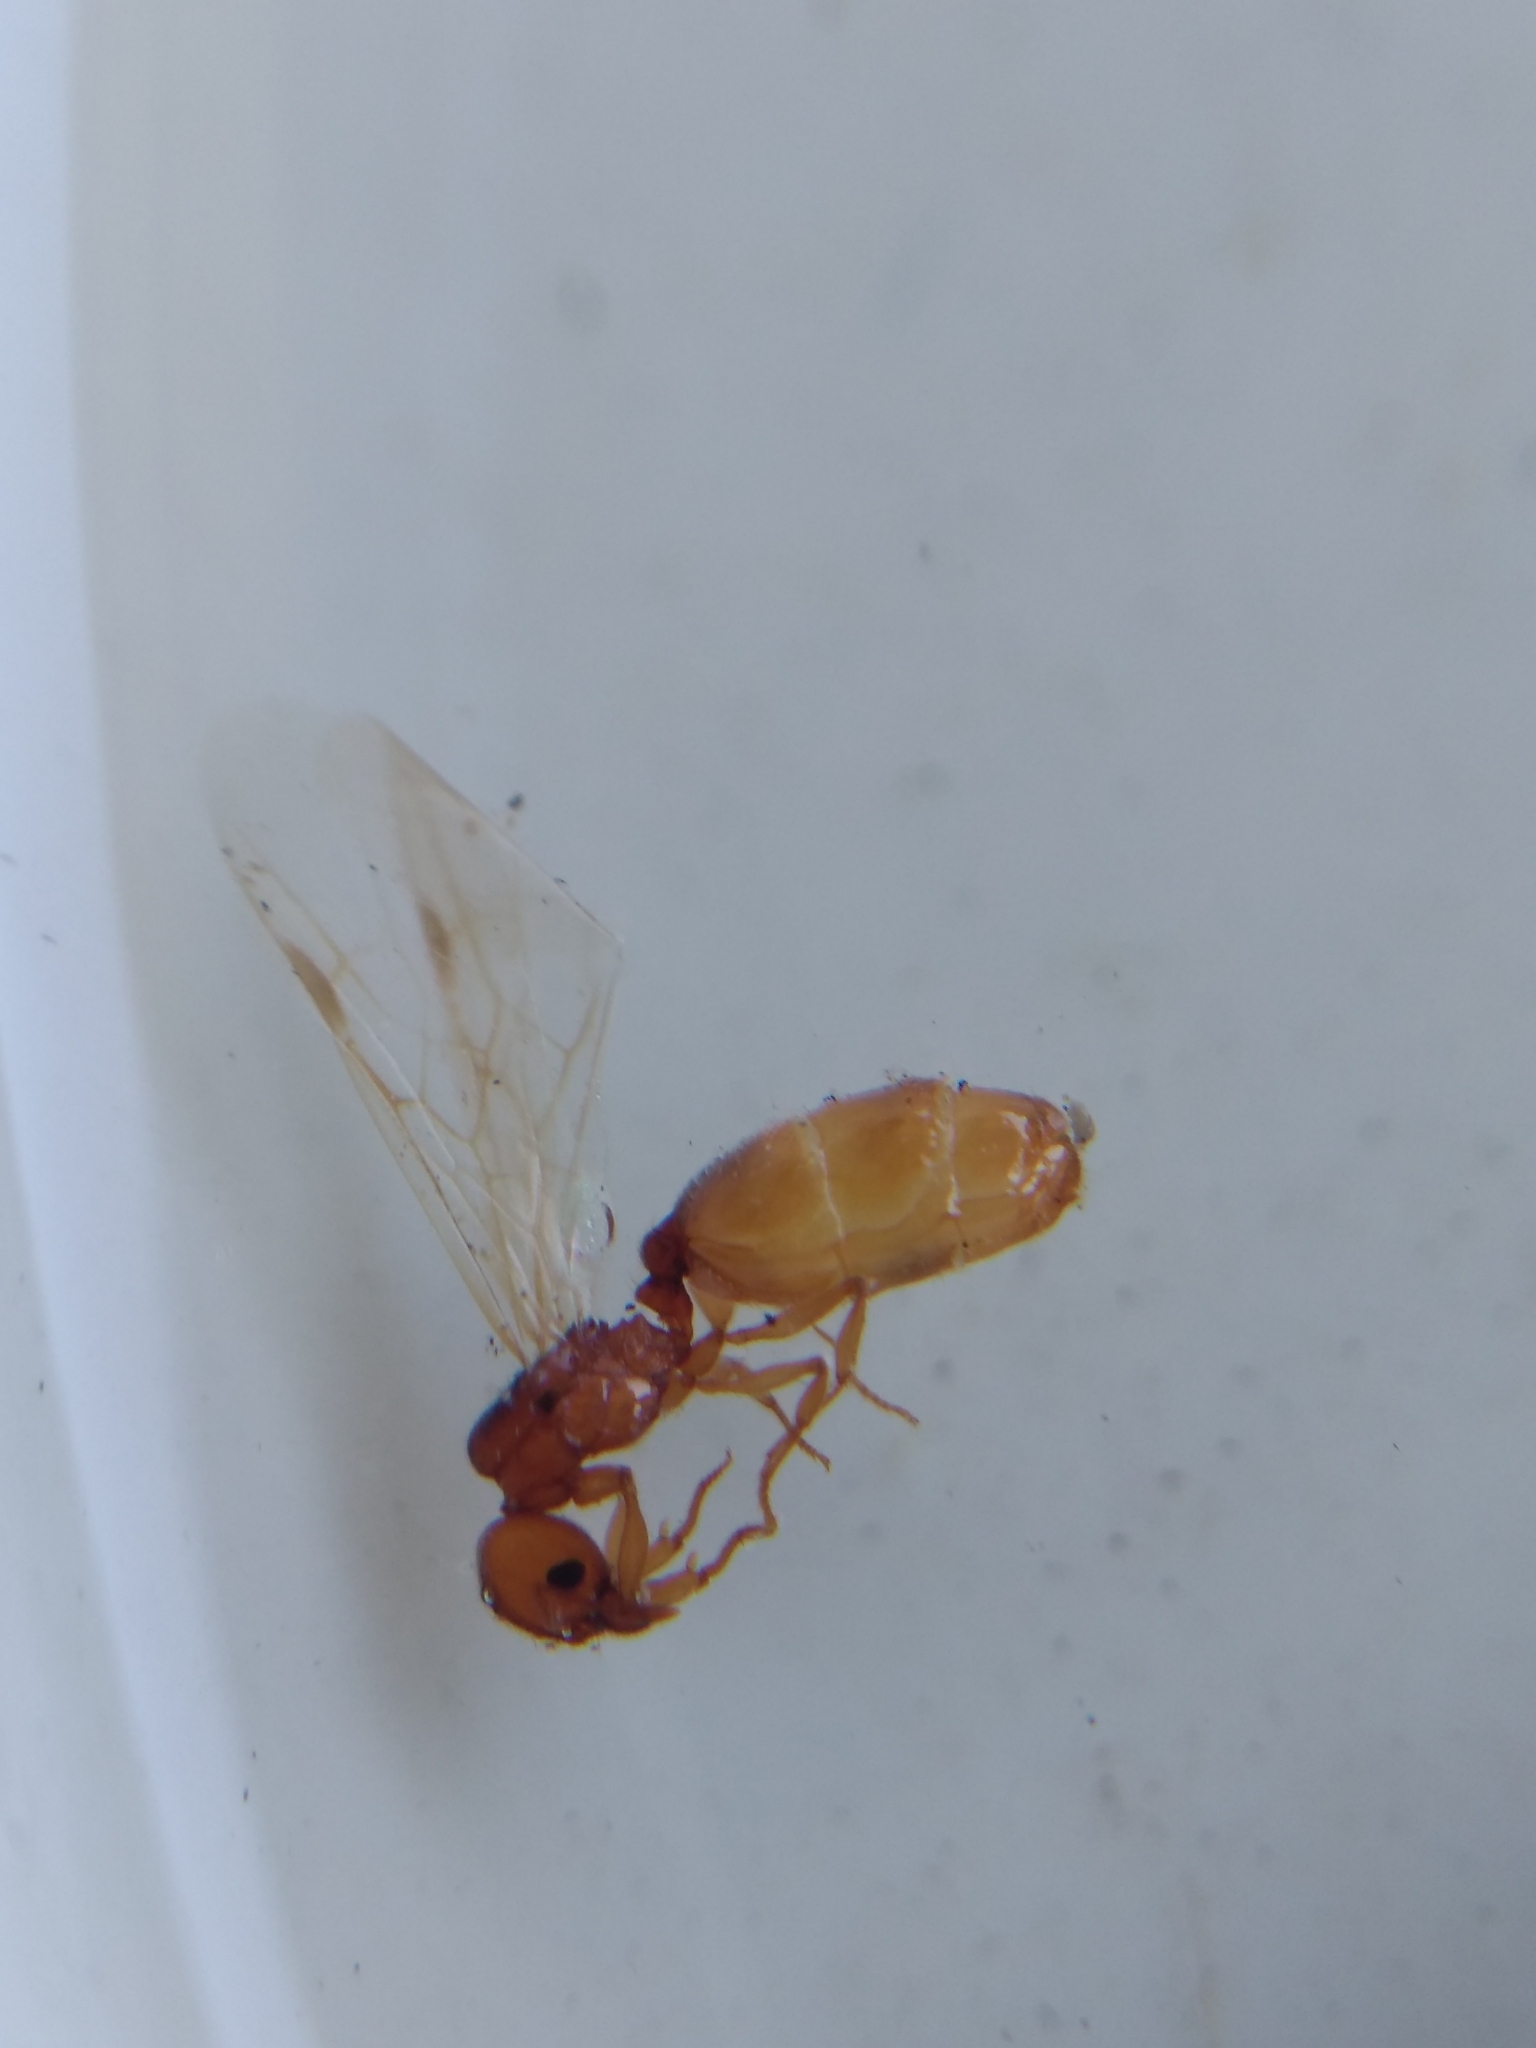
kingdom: Animalia
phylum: Arthropoda
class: Insecta
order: Hymenoptera
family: Formicidae
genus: Pheidole
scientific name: Pheidole cerebrosior
